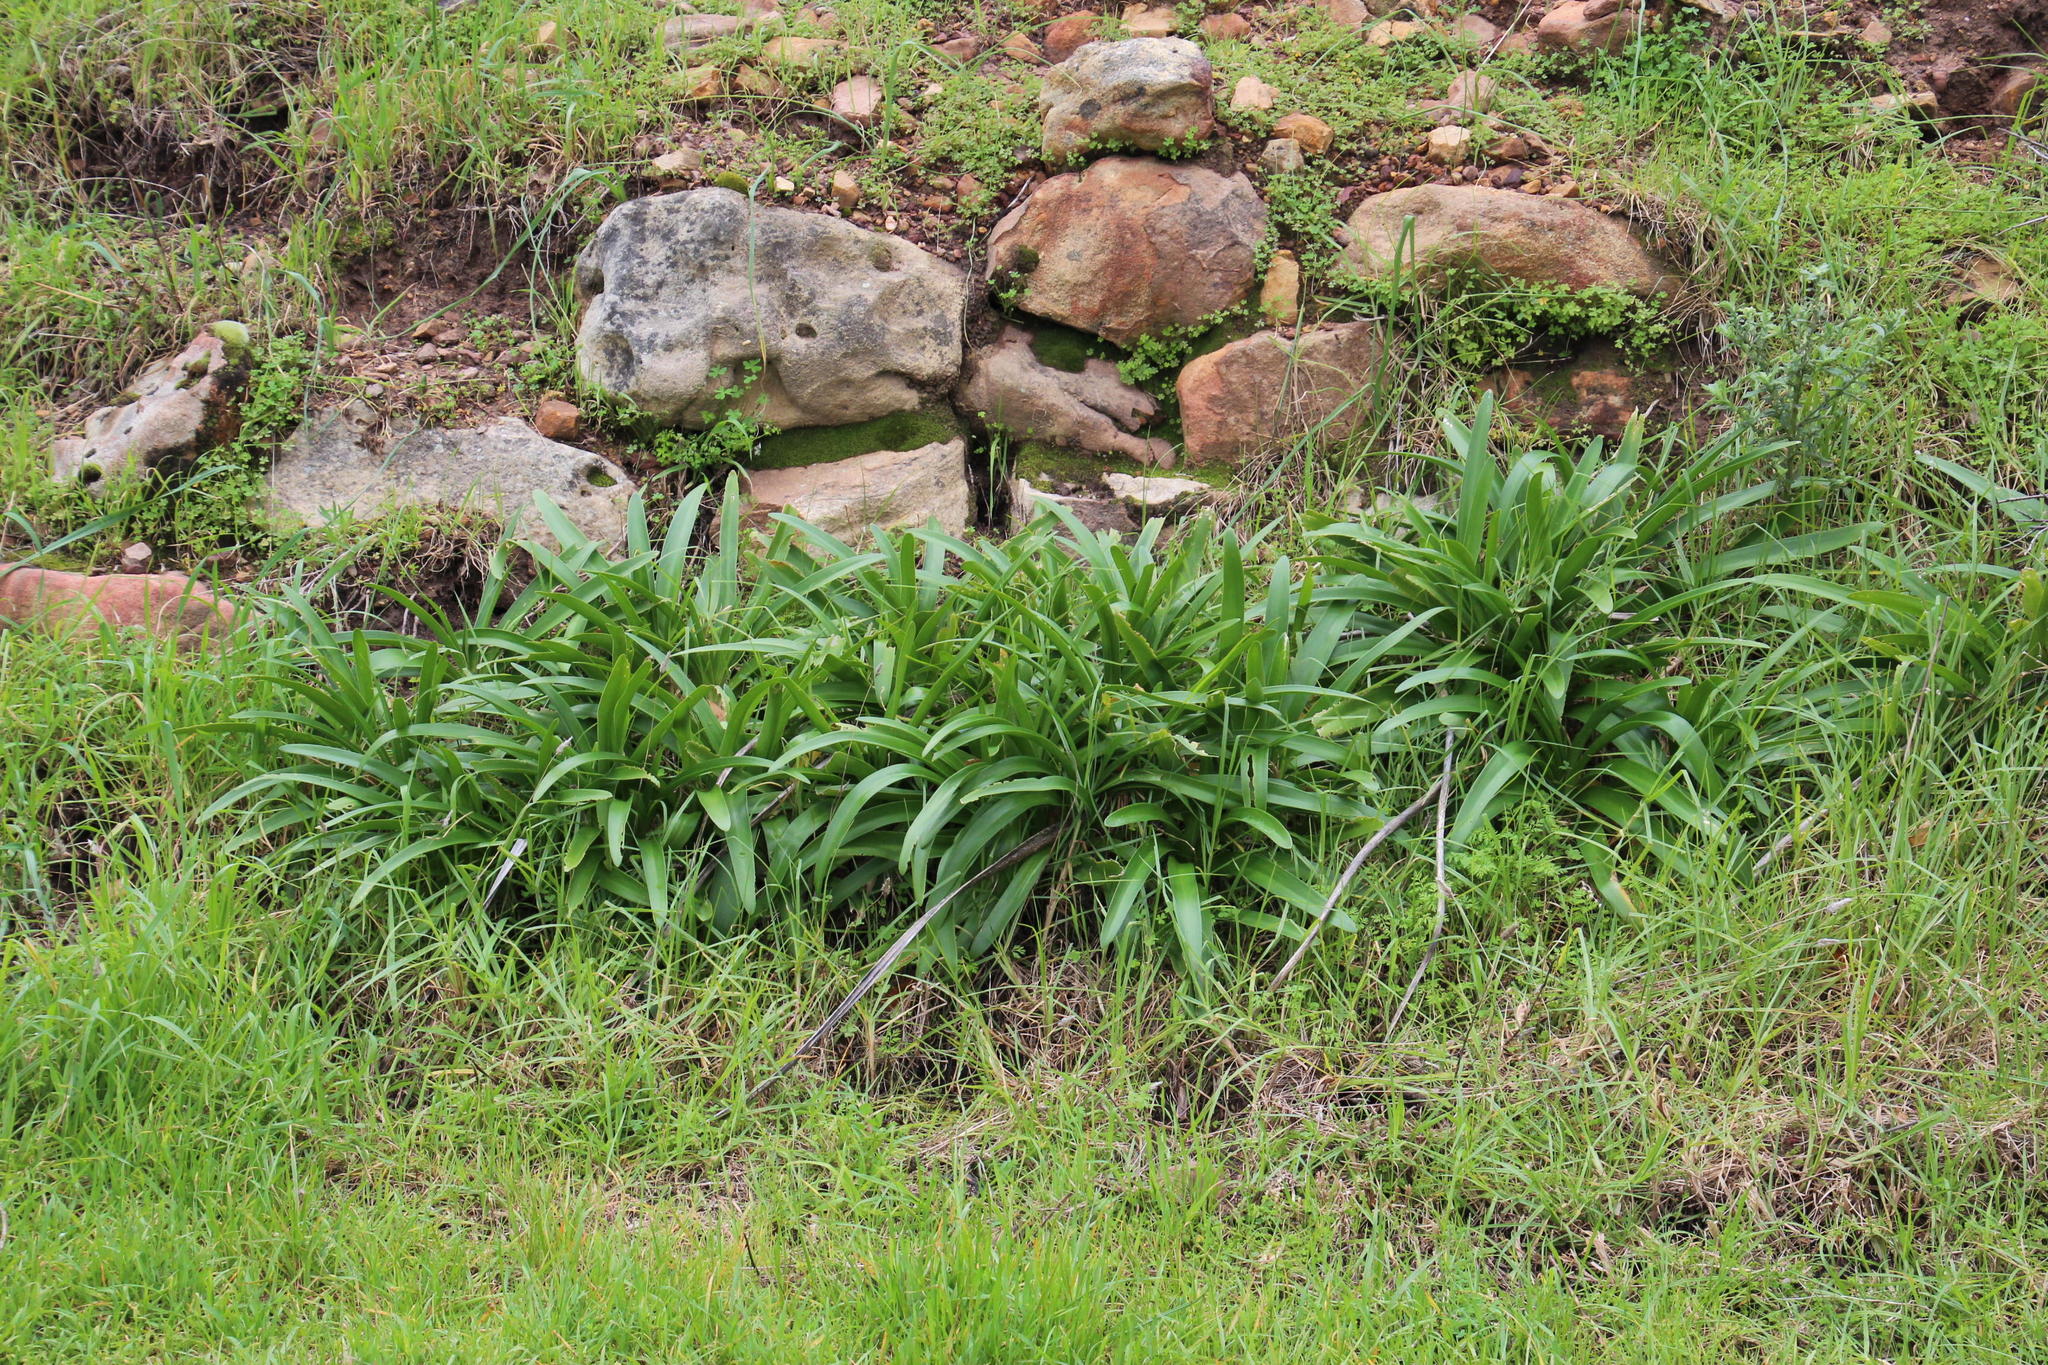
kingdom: Plantae
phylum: Tracheophyta
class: Liliopsida
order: Asparagales
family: Amaryllidaceae
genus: Agapanthus
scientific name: Agapanthus praecox
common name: African-lily
